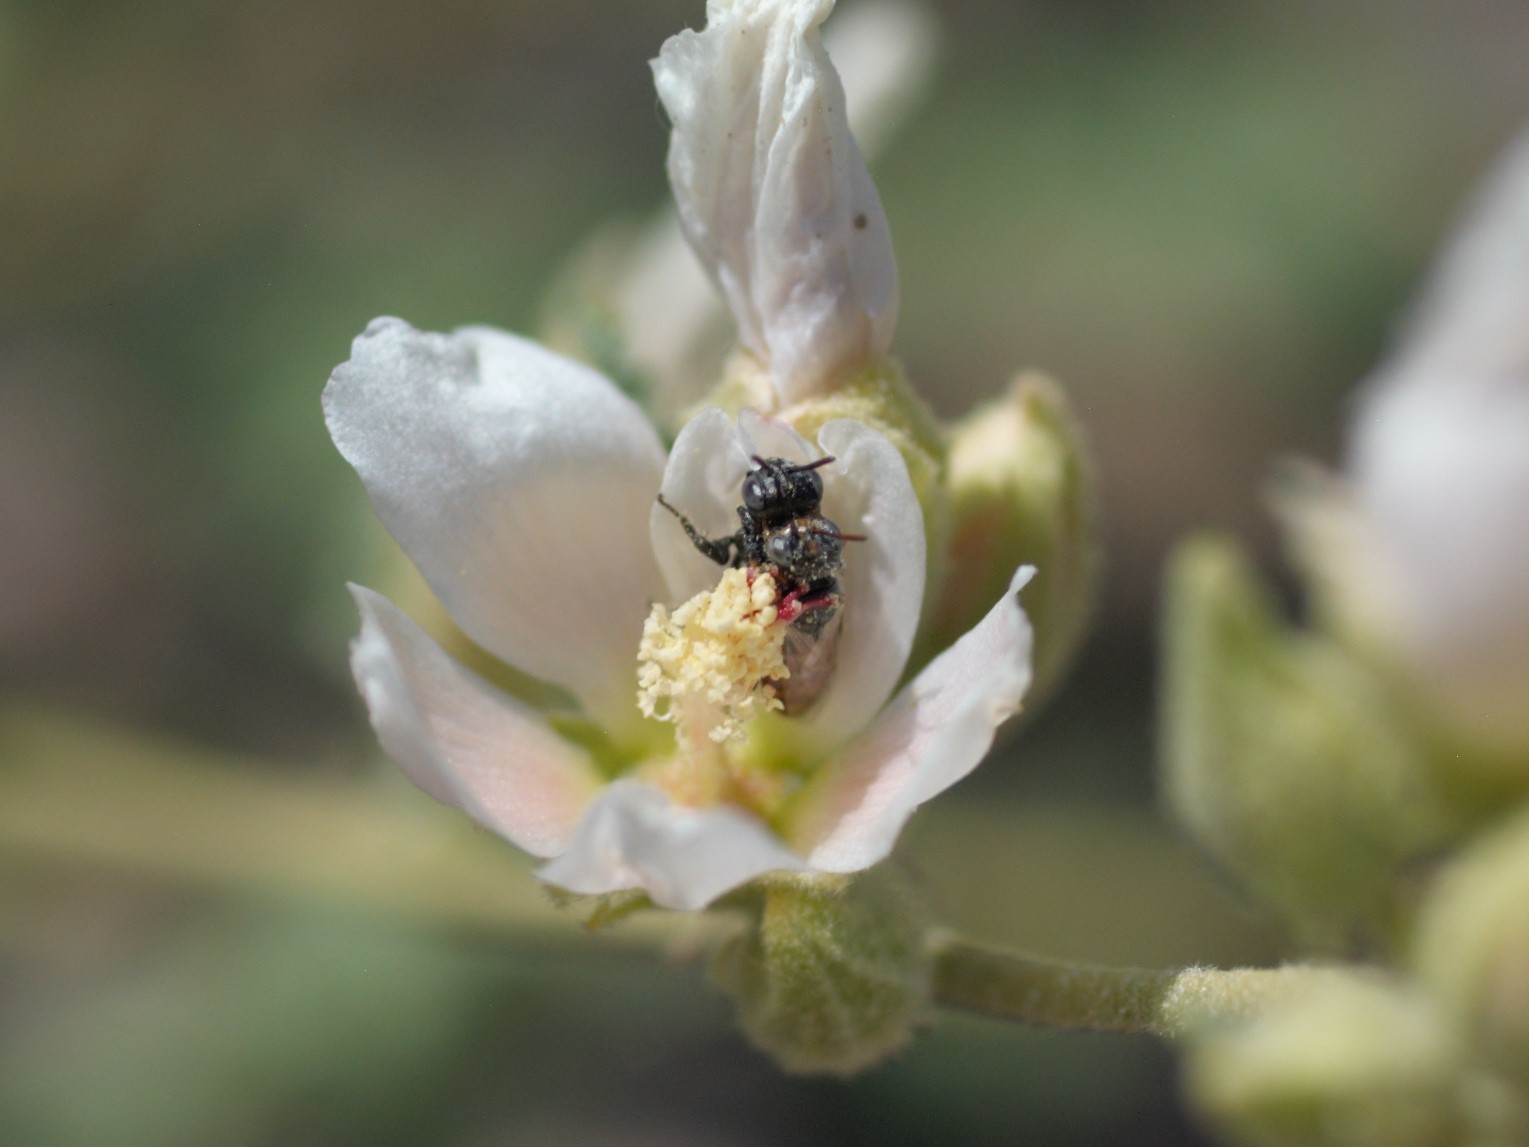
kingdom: Animalia
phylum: Arthropoda
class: Insecta
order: Hymenoptera
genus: Macroteropsis
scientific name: Macroteropsis
